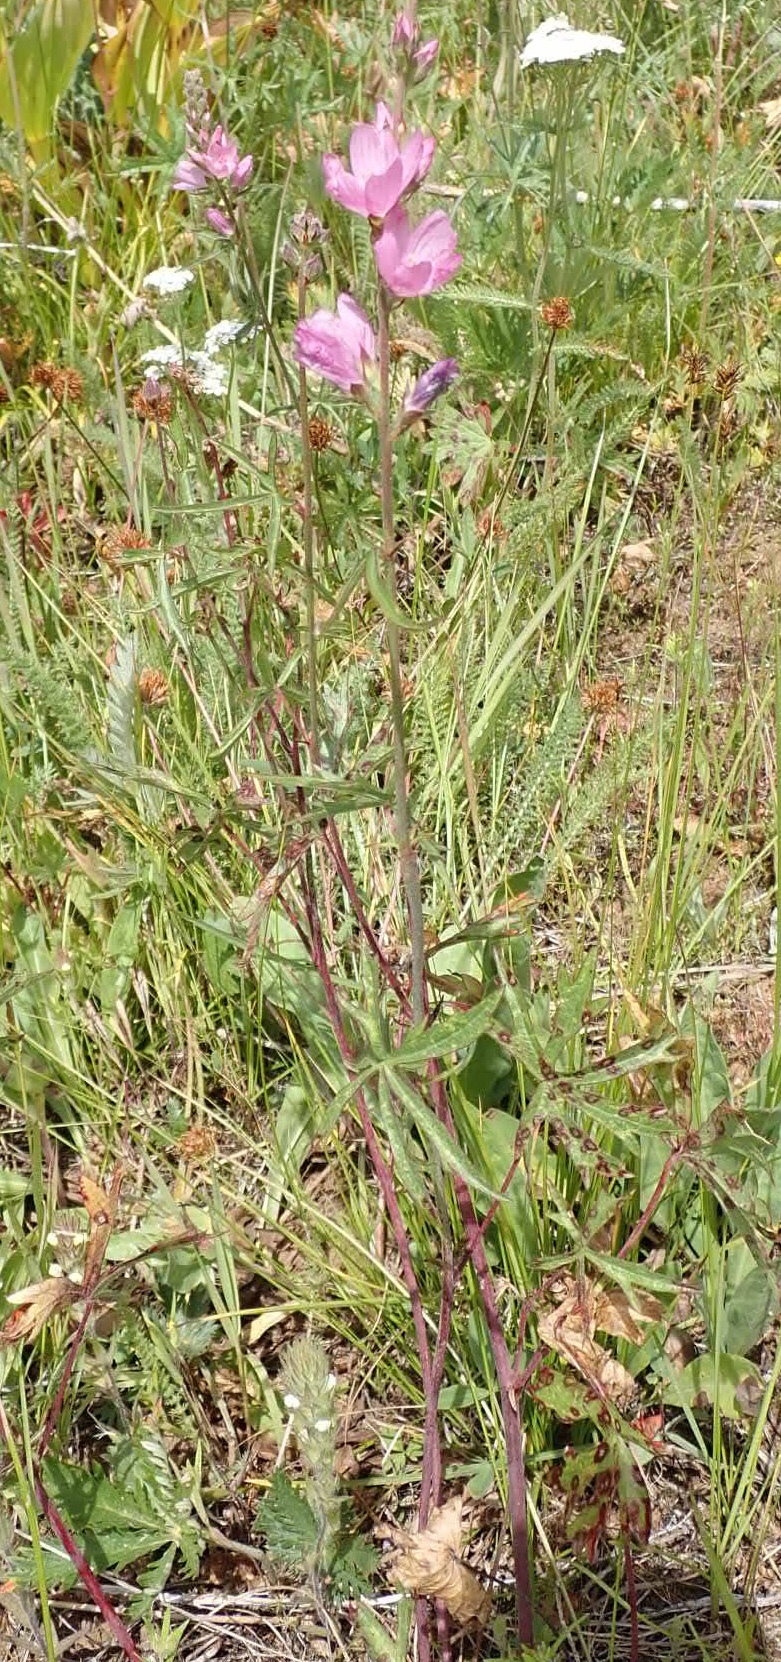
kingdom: Plantae
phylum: Tracheophyta
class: Magnoliopsida
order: Malvales
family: Malvaceae
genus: Sidalcea
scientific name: Sidalcea oregana
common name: Oregon checker-mallow
